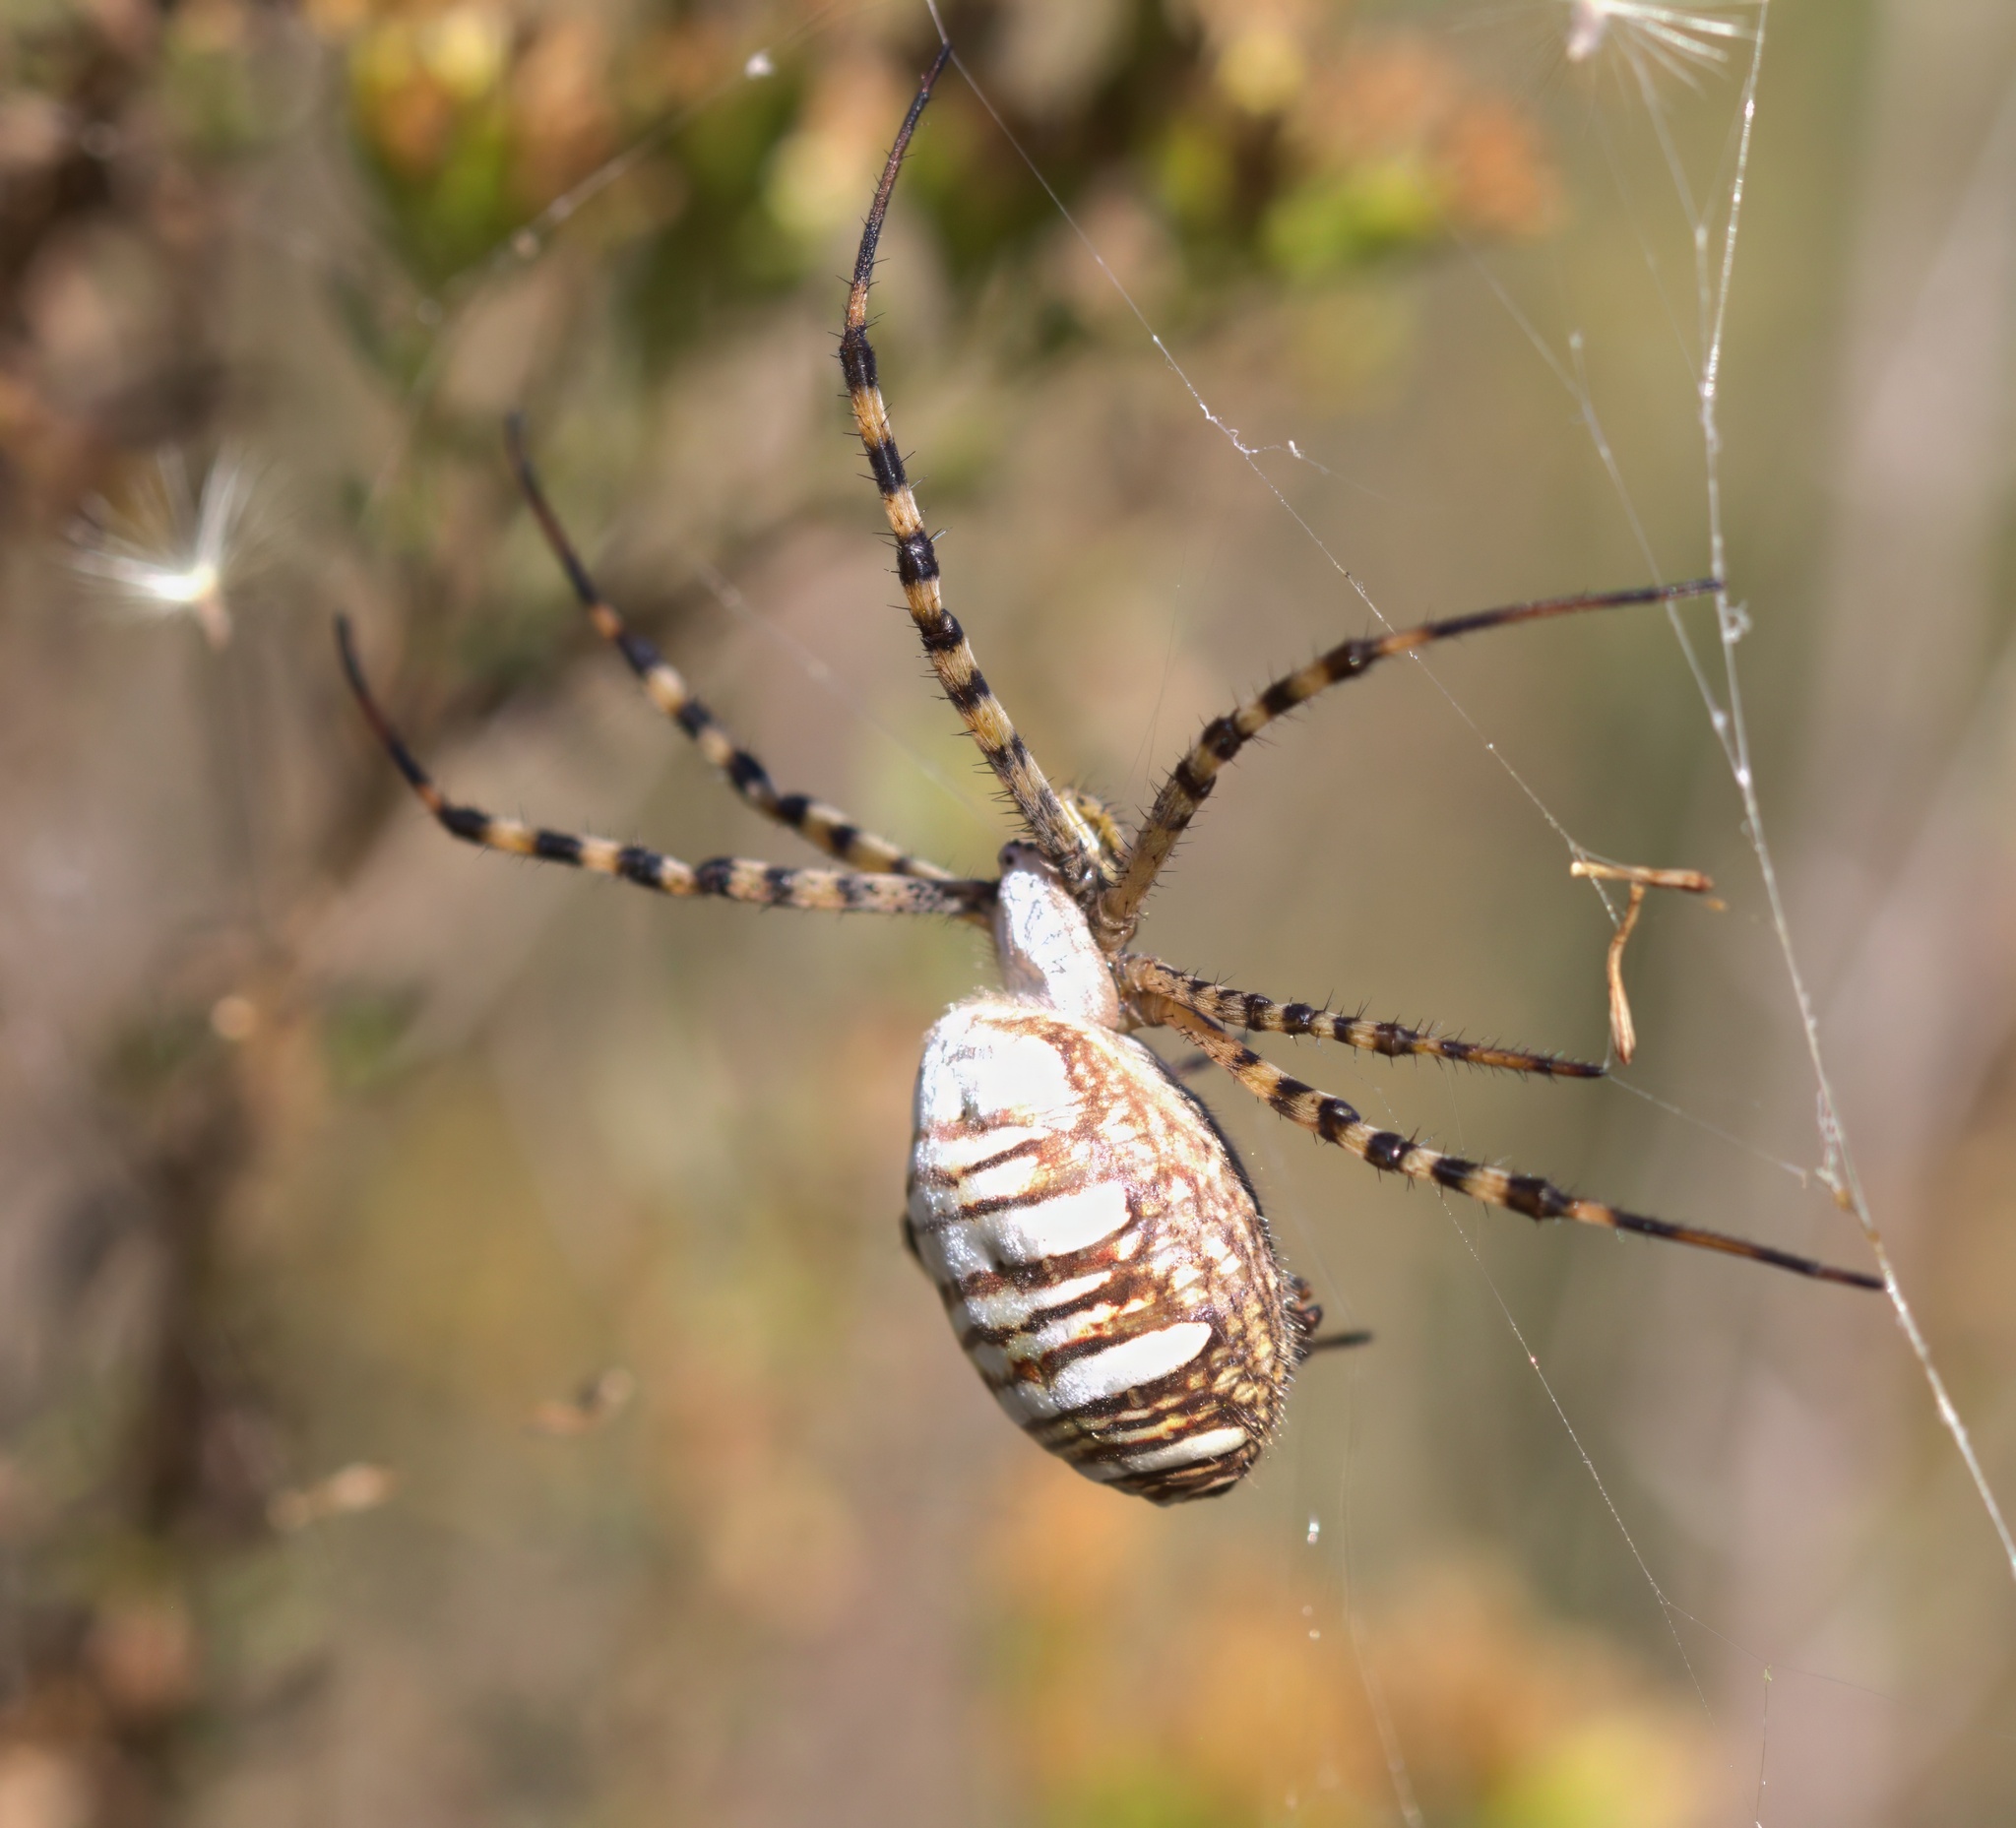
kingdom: Animalia
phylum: Arthropoda
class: Arachnida
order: Araneae
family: Araneidae
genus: Argiope
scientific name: Argiope trifasciata
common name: Banded garden spider
